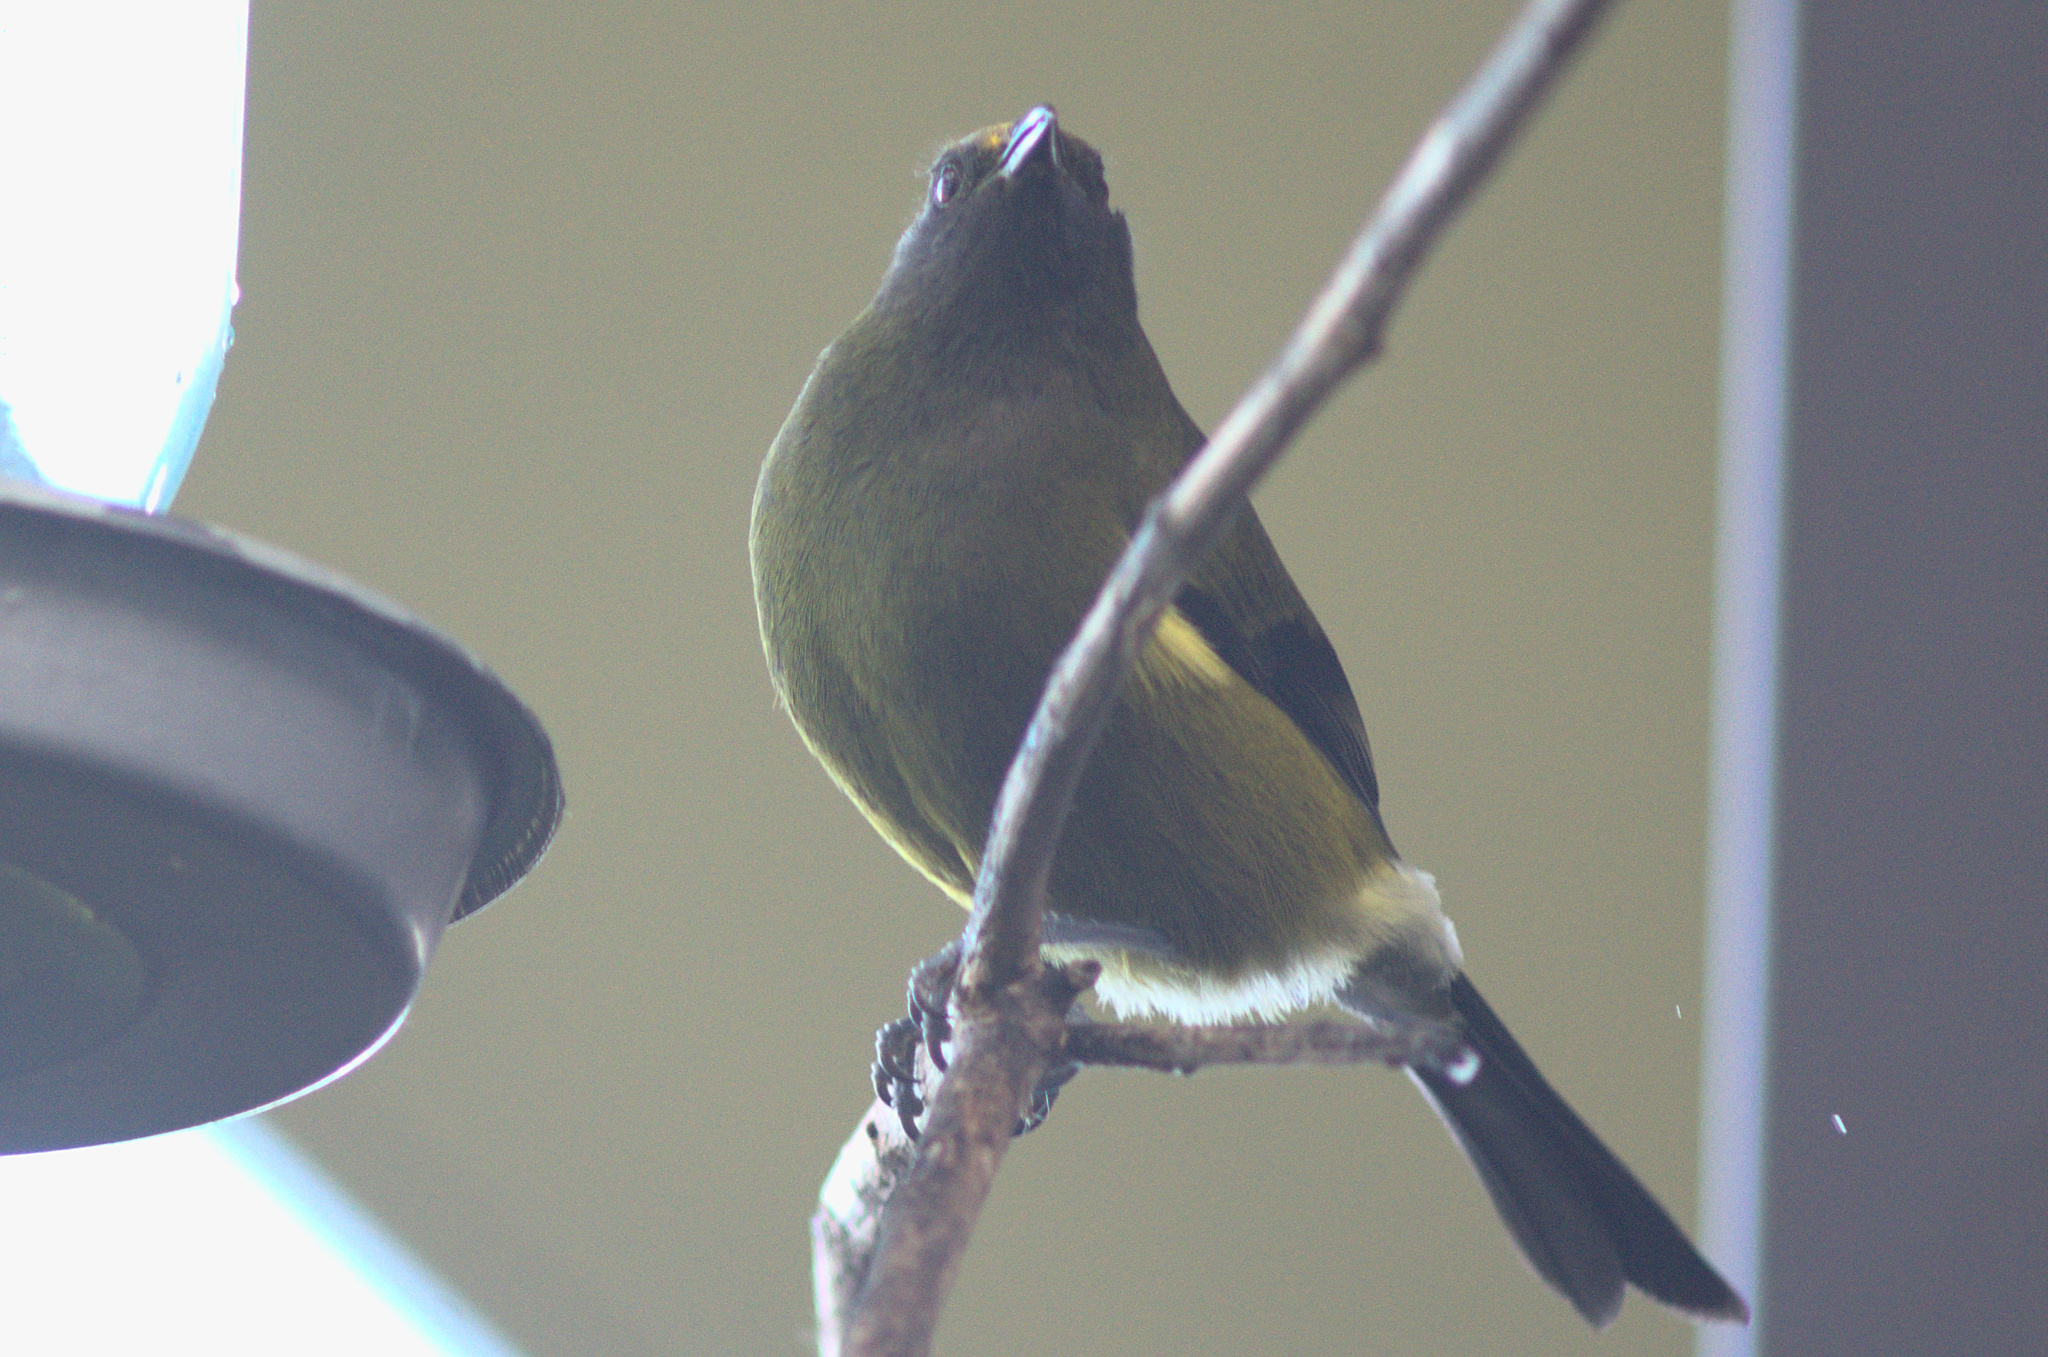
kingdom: Animalia
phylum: Chordata
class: Aves
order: Passeriformes
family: Meliphagidae
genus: Anthornis
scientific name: Anthornis melanura
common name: New zealand bellbird
